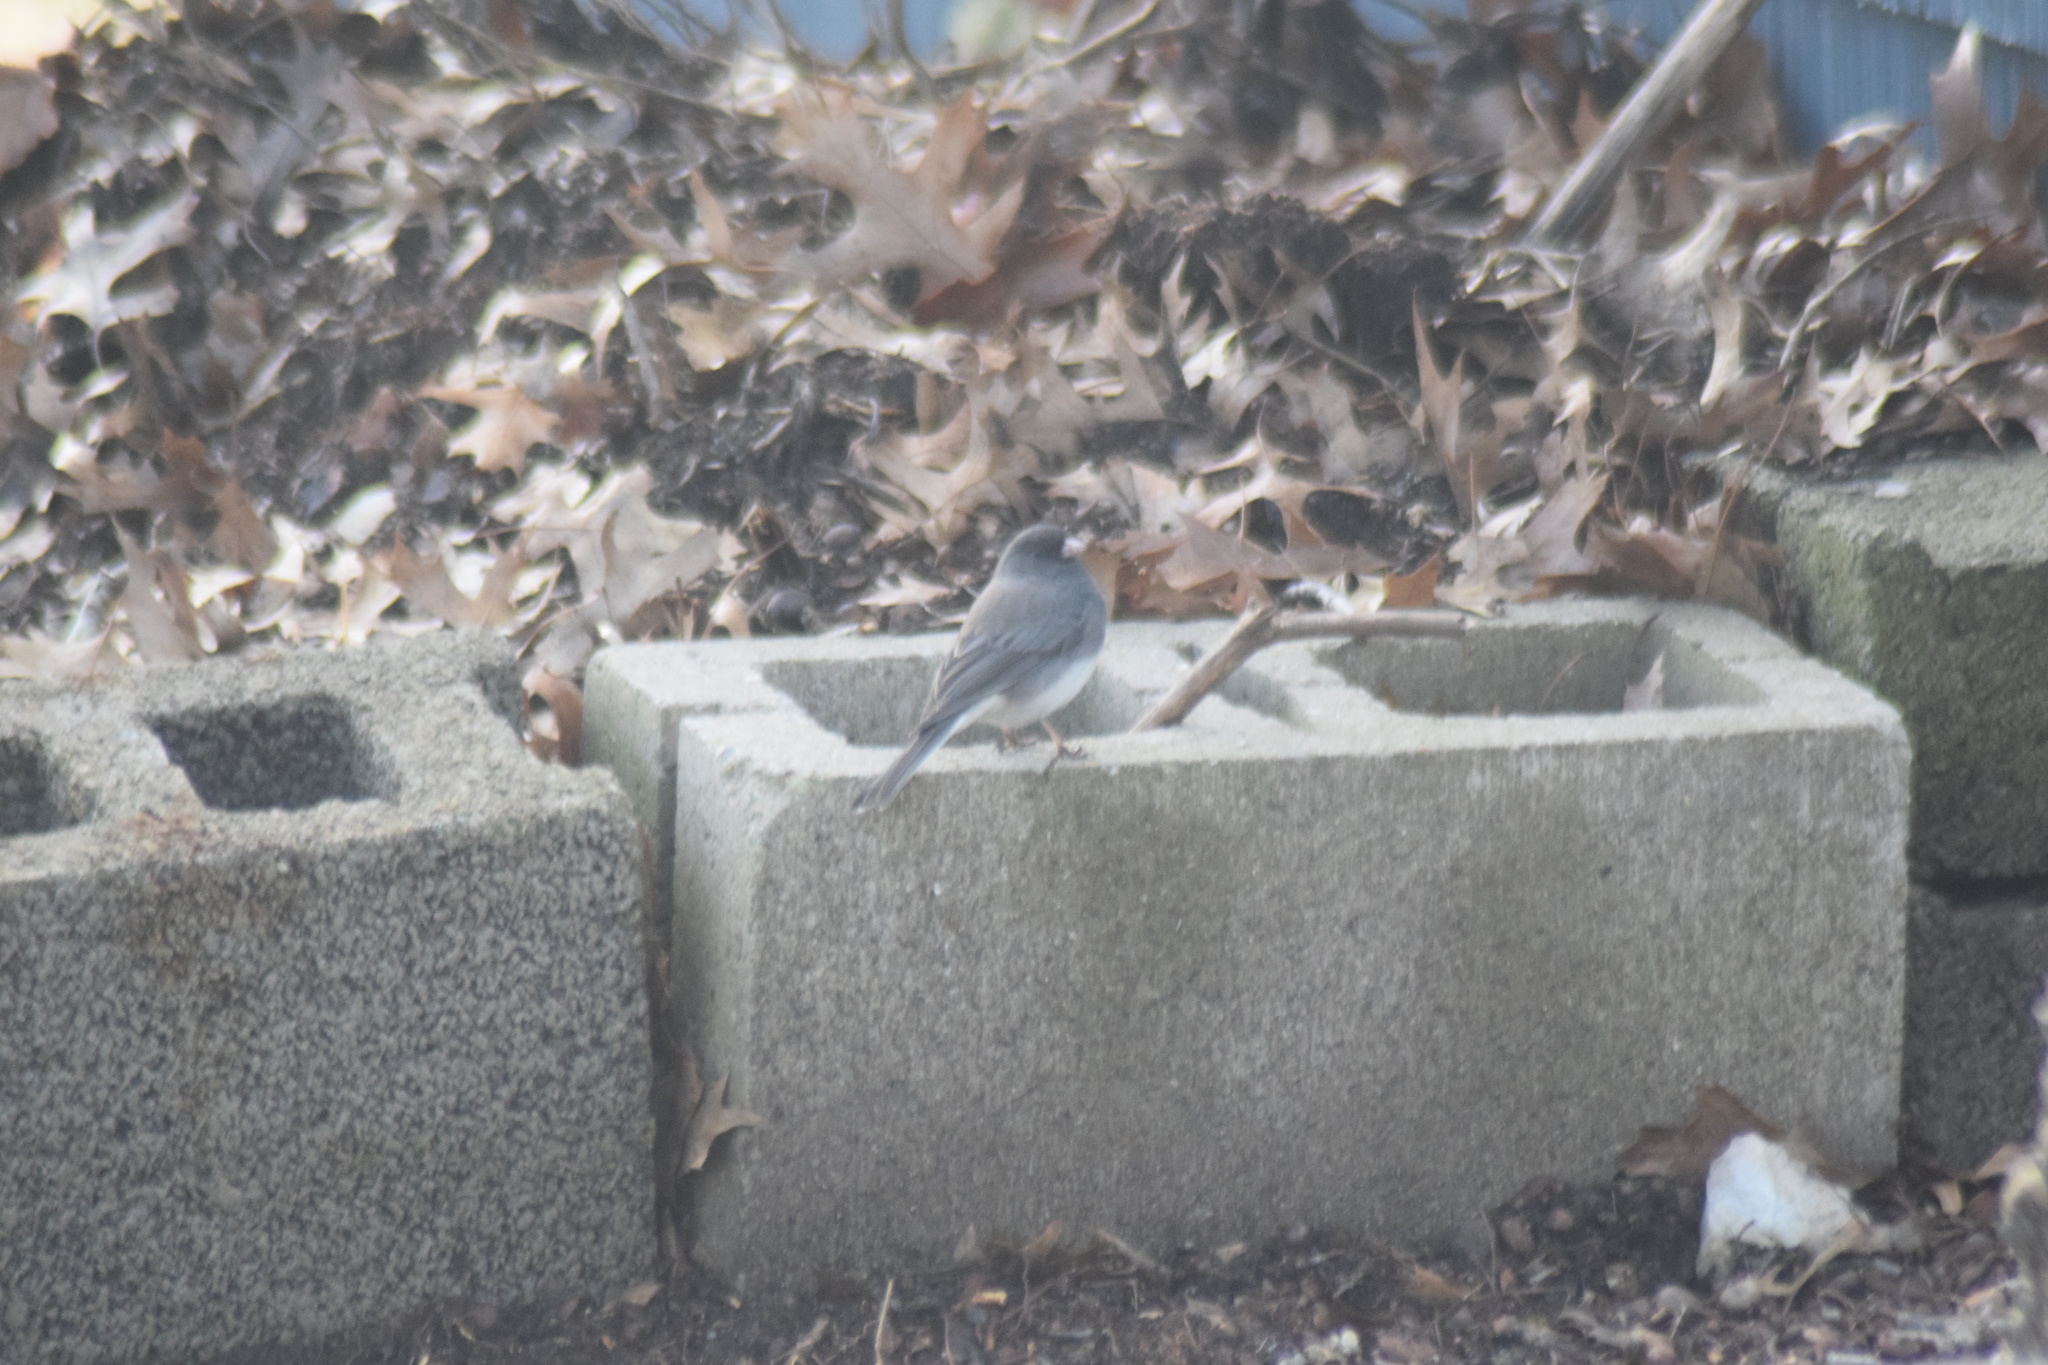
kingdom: Animalia
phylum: Chordata
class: Aves
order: Passeriformes
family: Passerellidae
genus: Junco
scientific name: Junco hyemalis
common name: Dark-eyed junco
